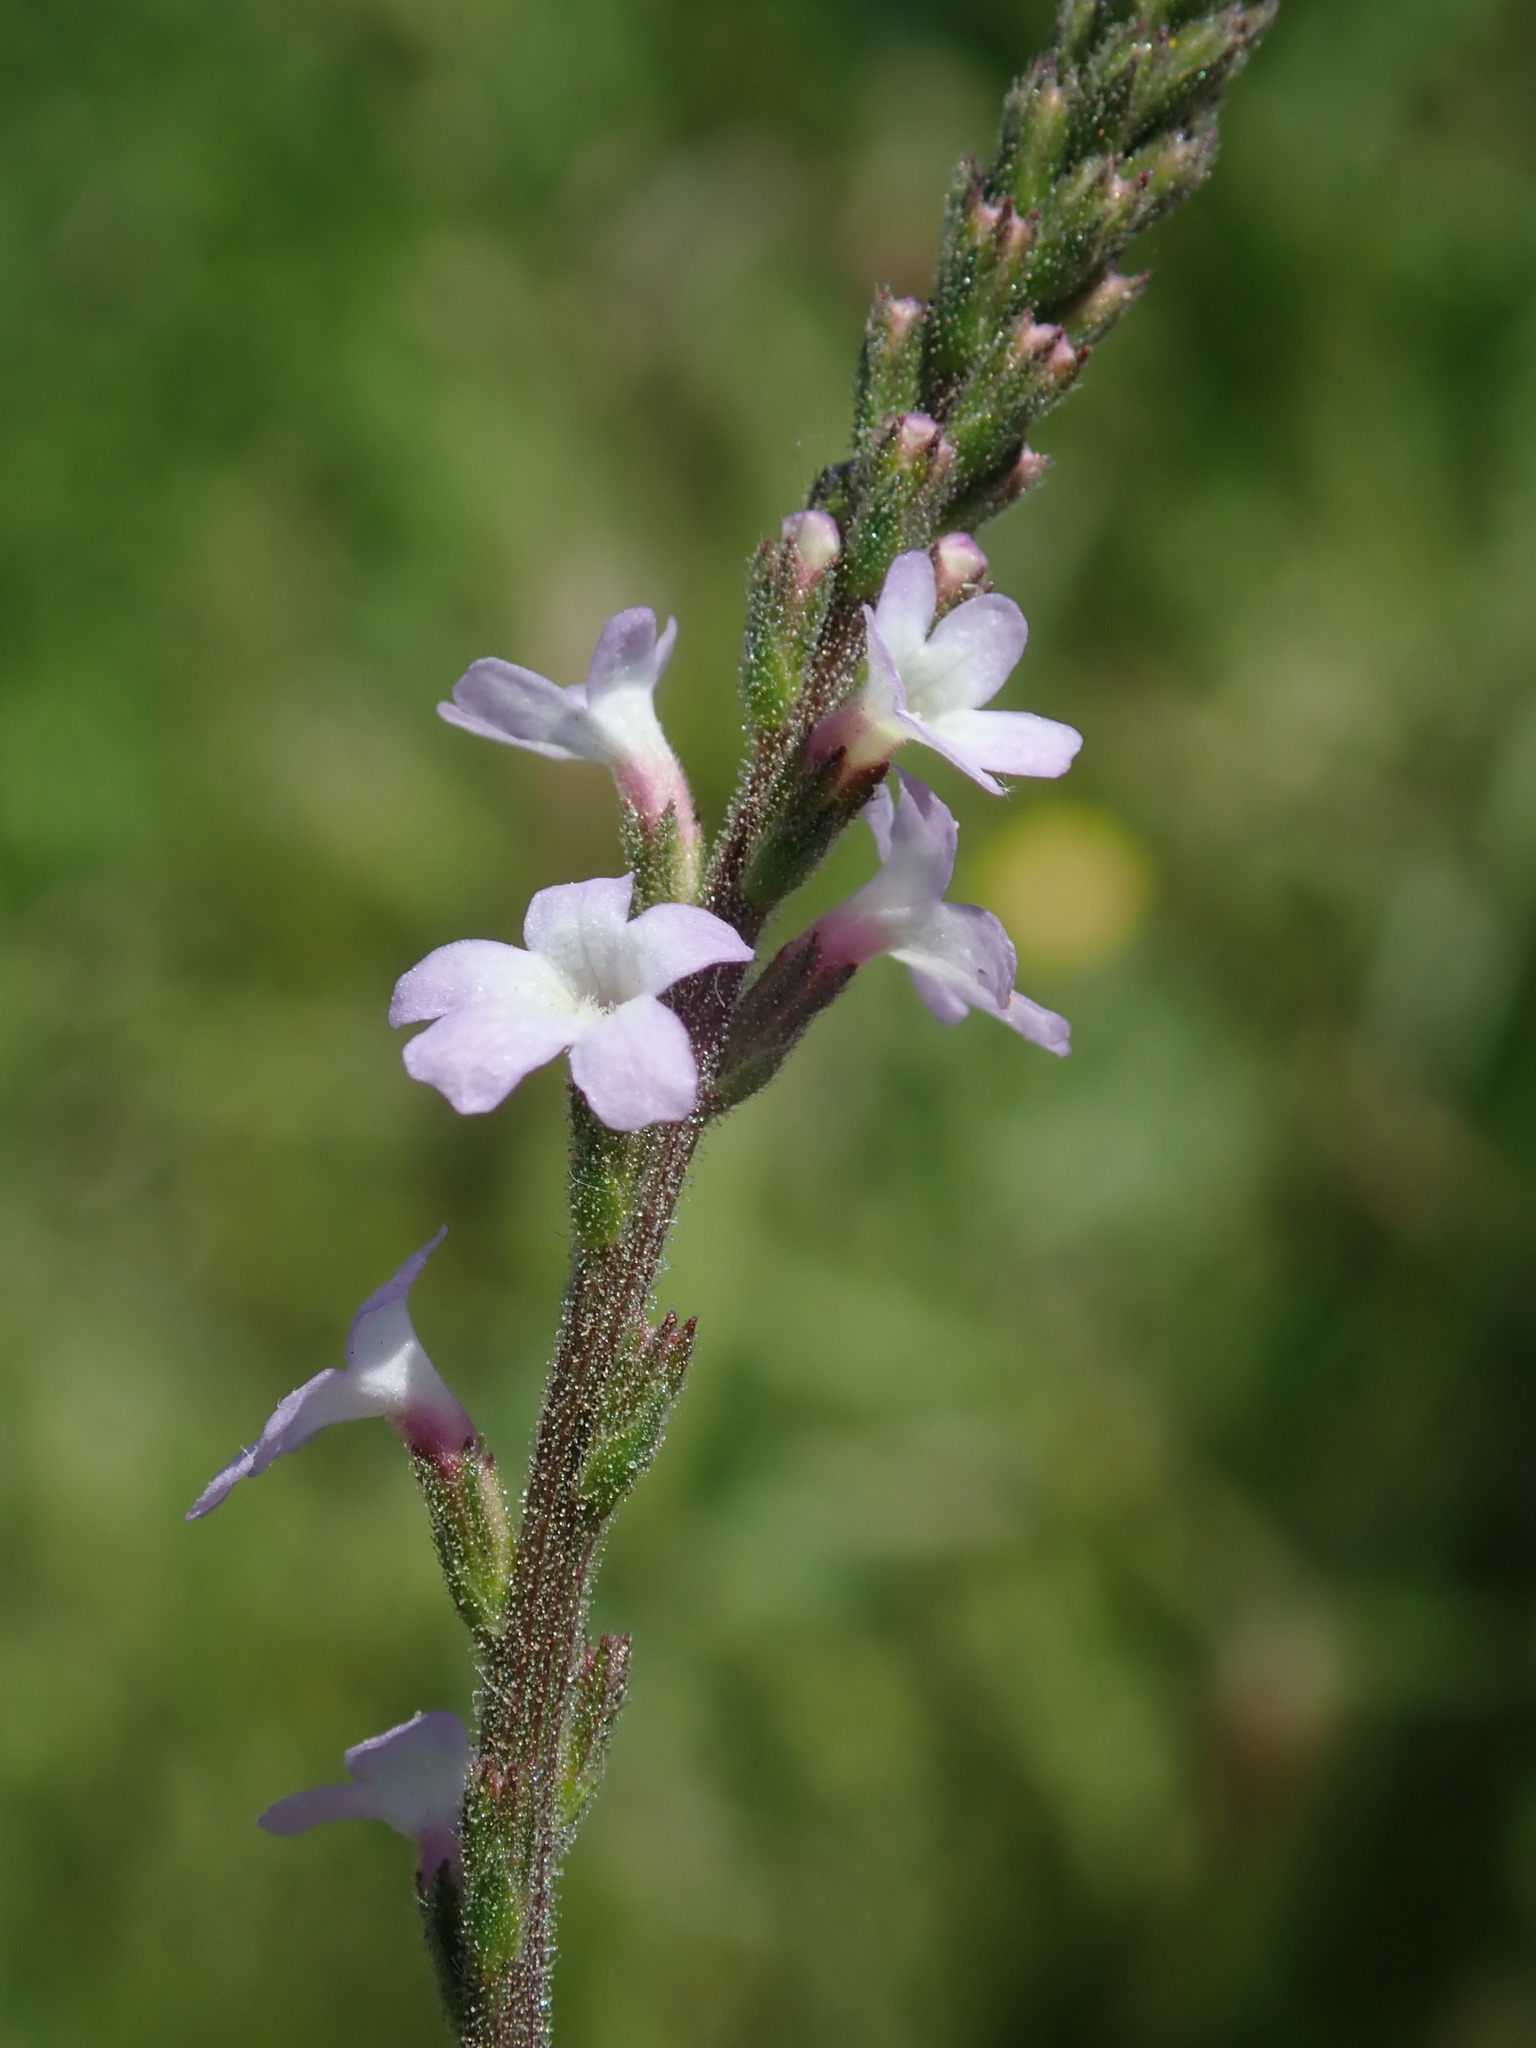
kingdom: Plantae
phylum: Tracheophyta
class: Magnoliopsida
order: Lamiales
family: Verbenaceae
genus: Verbena
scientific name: Verbena officinalis
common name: Vervain
